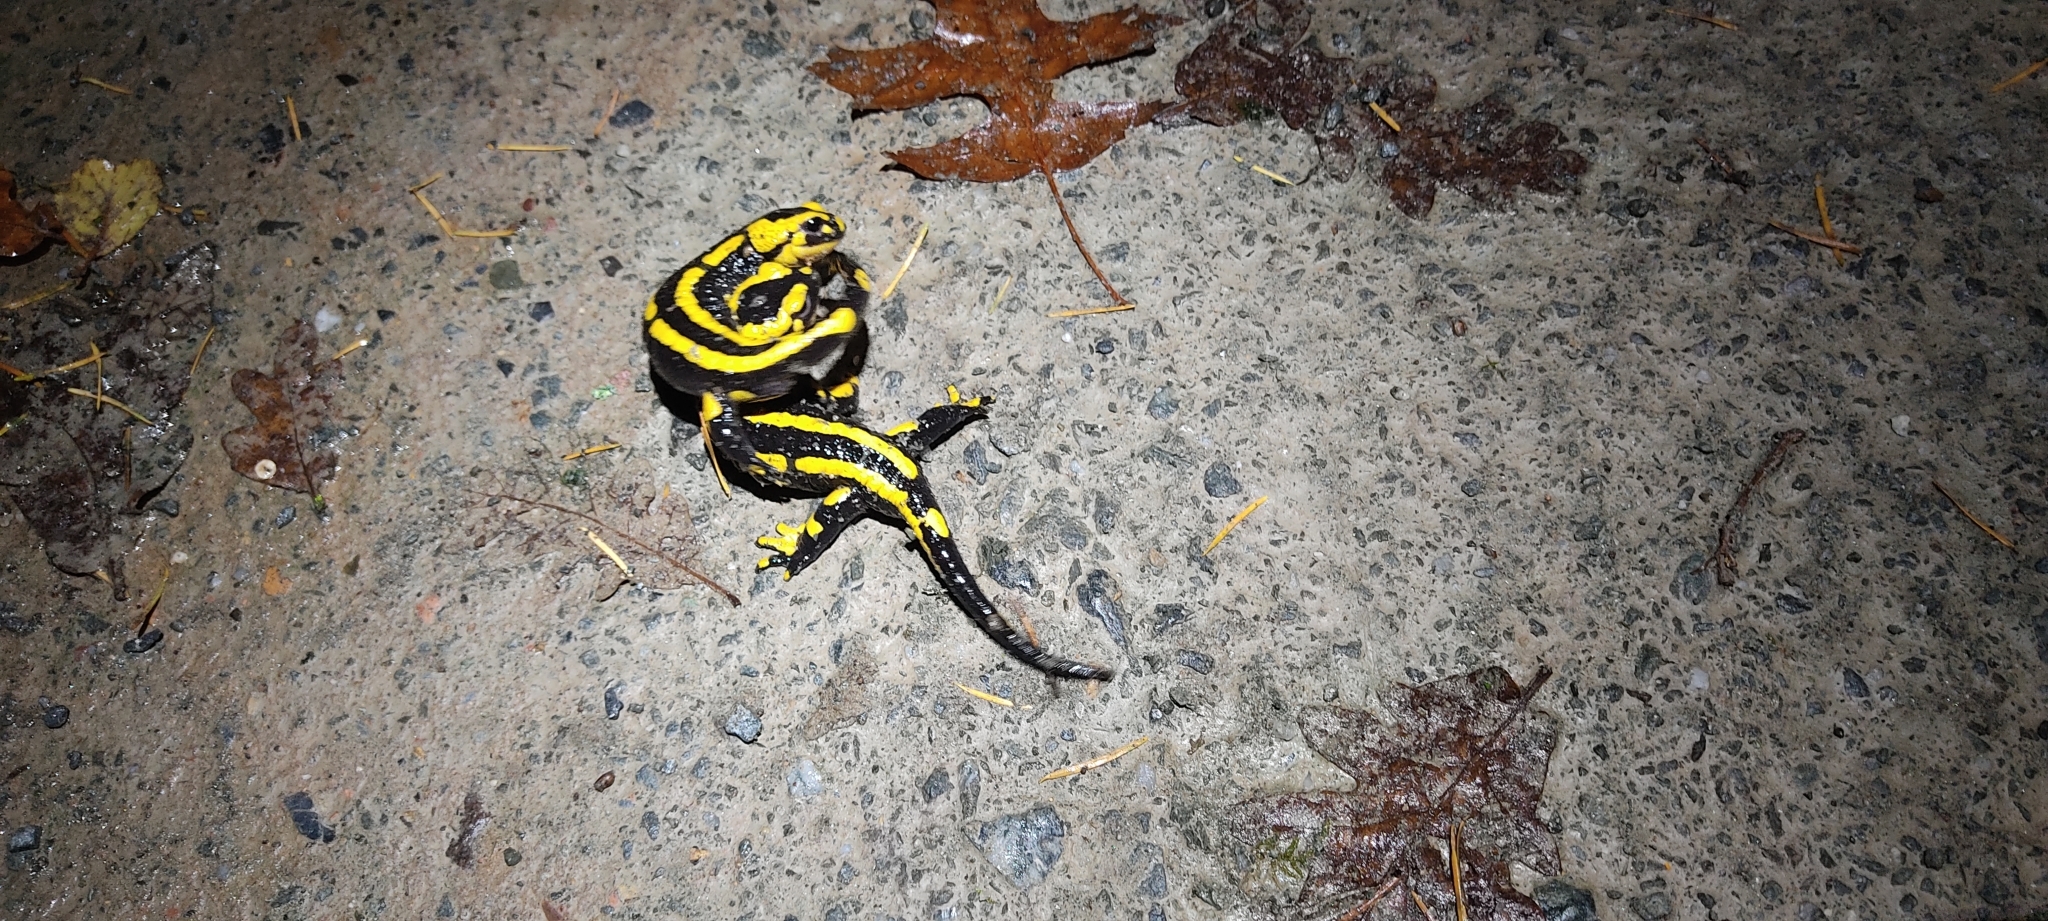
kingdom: Animalia
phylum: Chordata
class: Amphibia
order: Caudata
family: Salamandridae
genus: Salamandra
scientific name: Salamandra salamandra
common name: Fire salamander
